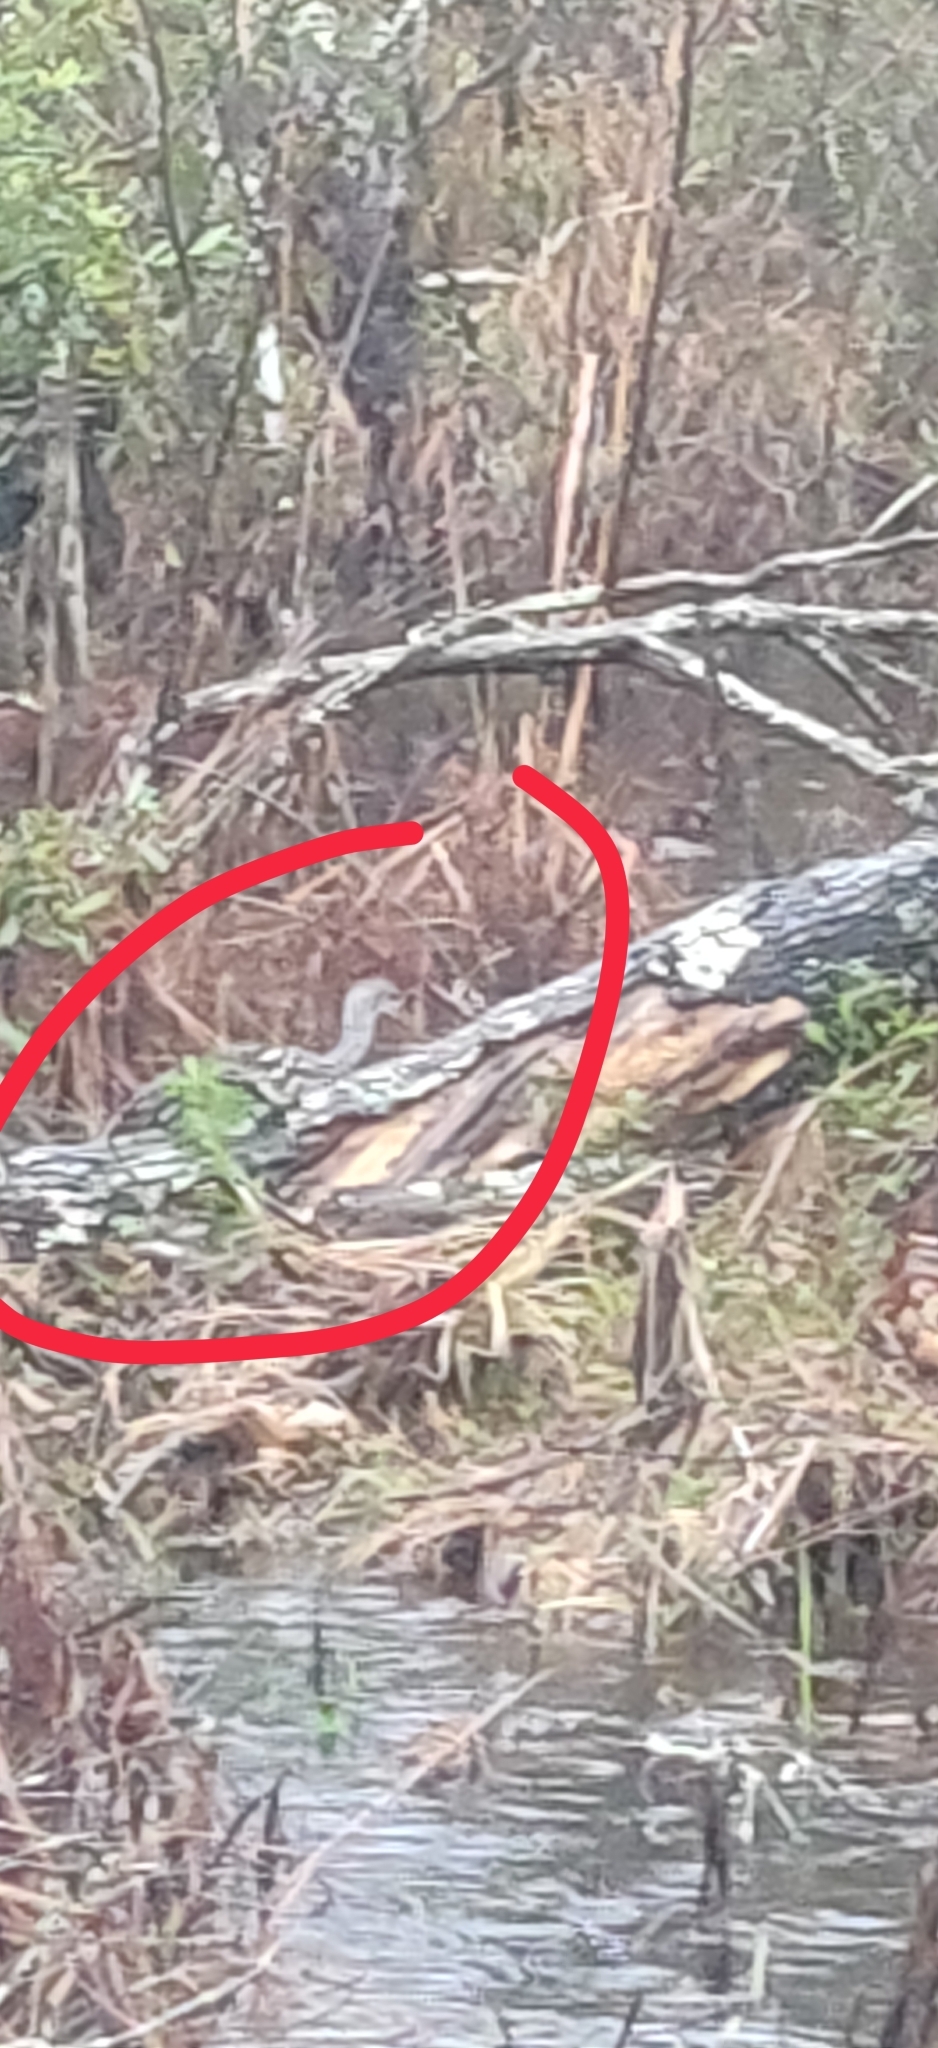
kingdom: Animalia
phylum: Chordata
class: Aves
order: Gruiformes
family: Aramidae
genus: Aramus
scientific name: Aramus guarauna
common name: Limpkin
